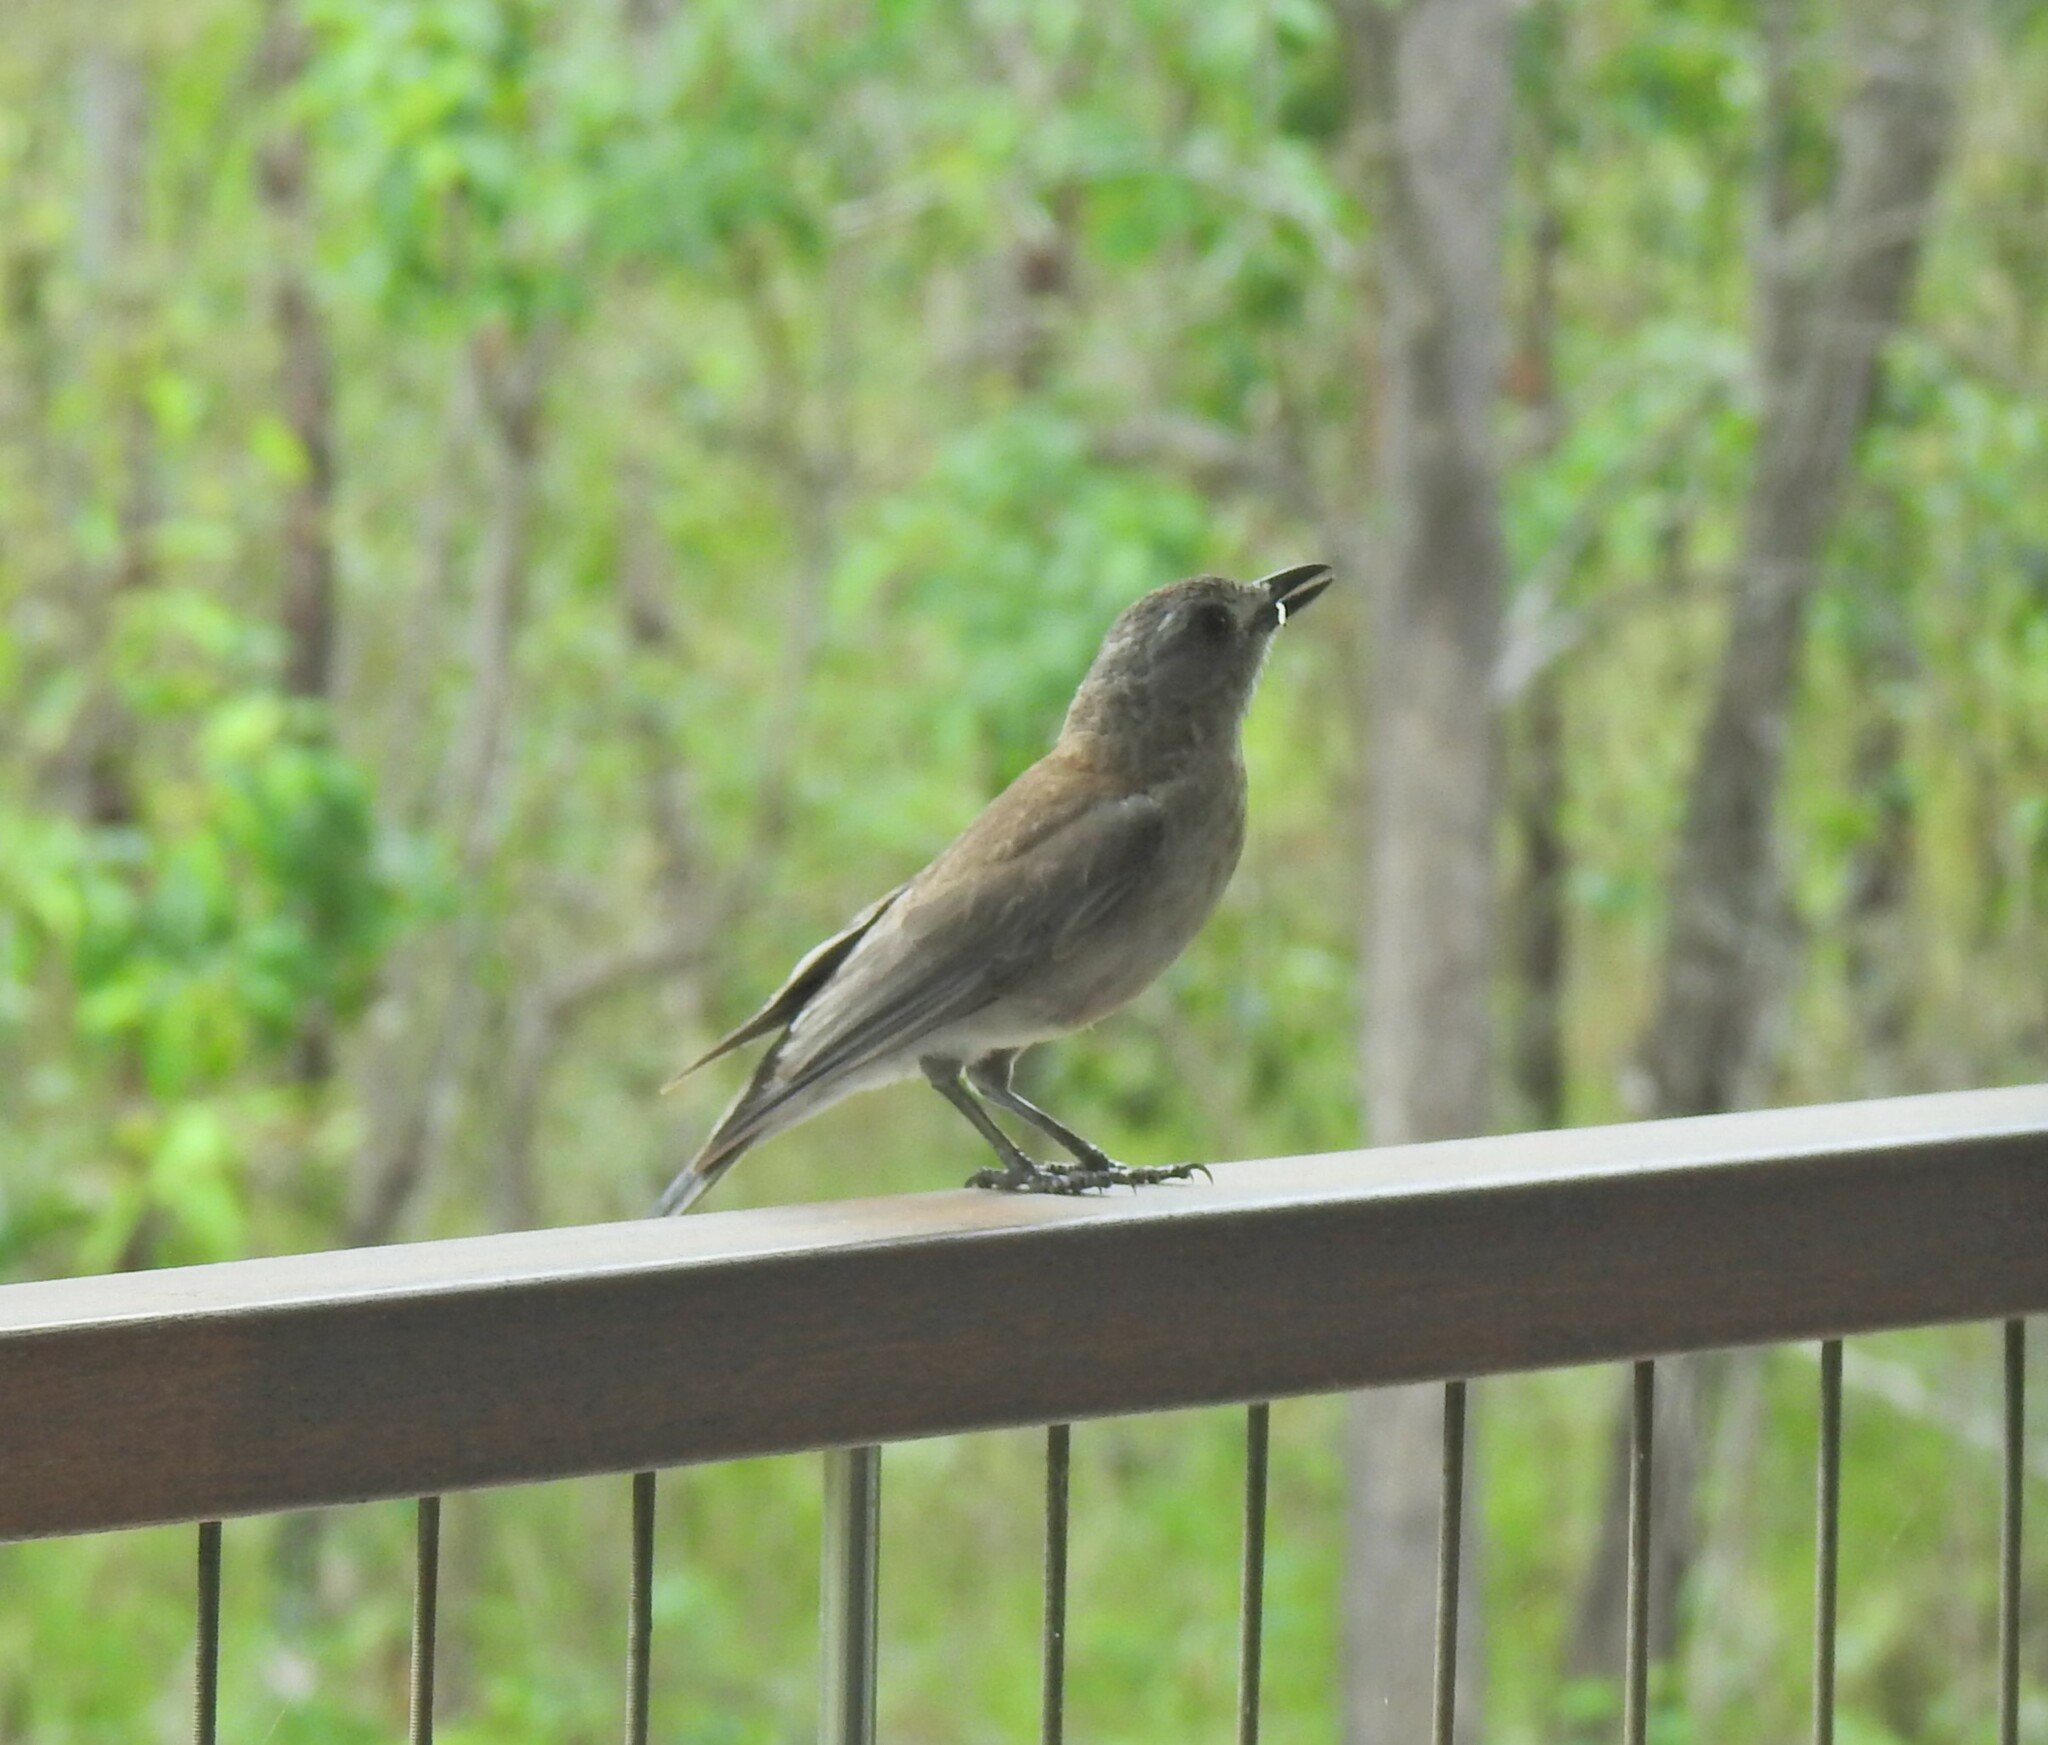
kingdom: Animalia
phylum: Chordata
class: Aves
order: Passeriformes
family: Pachycephalidae
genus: Colluricincla
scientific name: Colluricincla harmonica
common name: Grey shrikethrush
